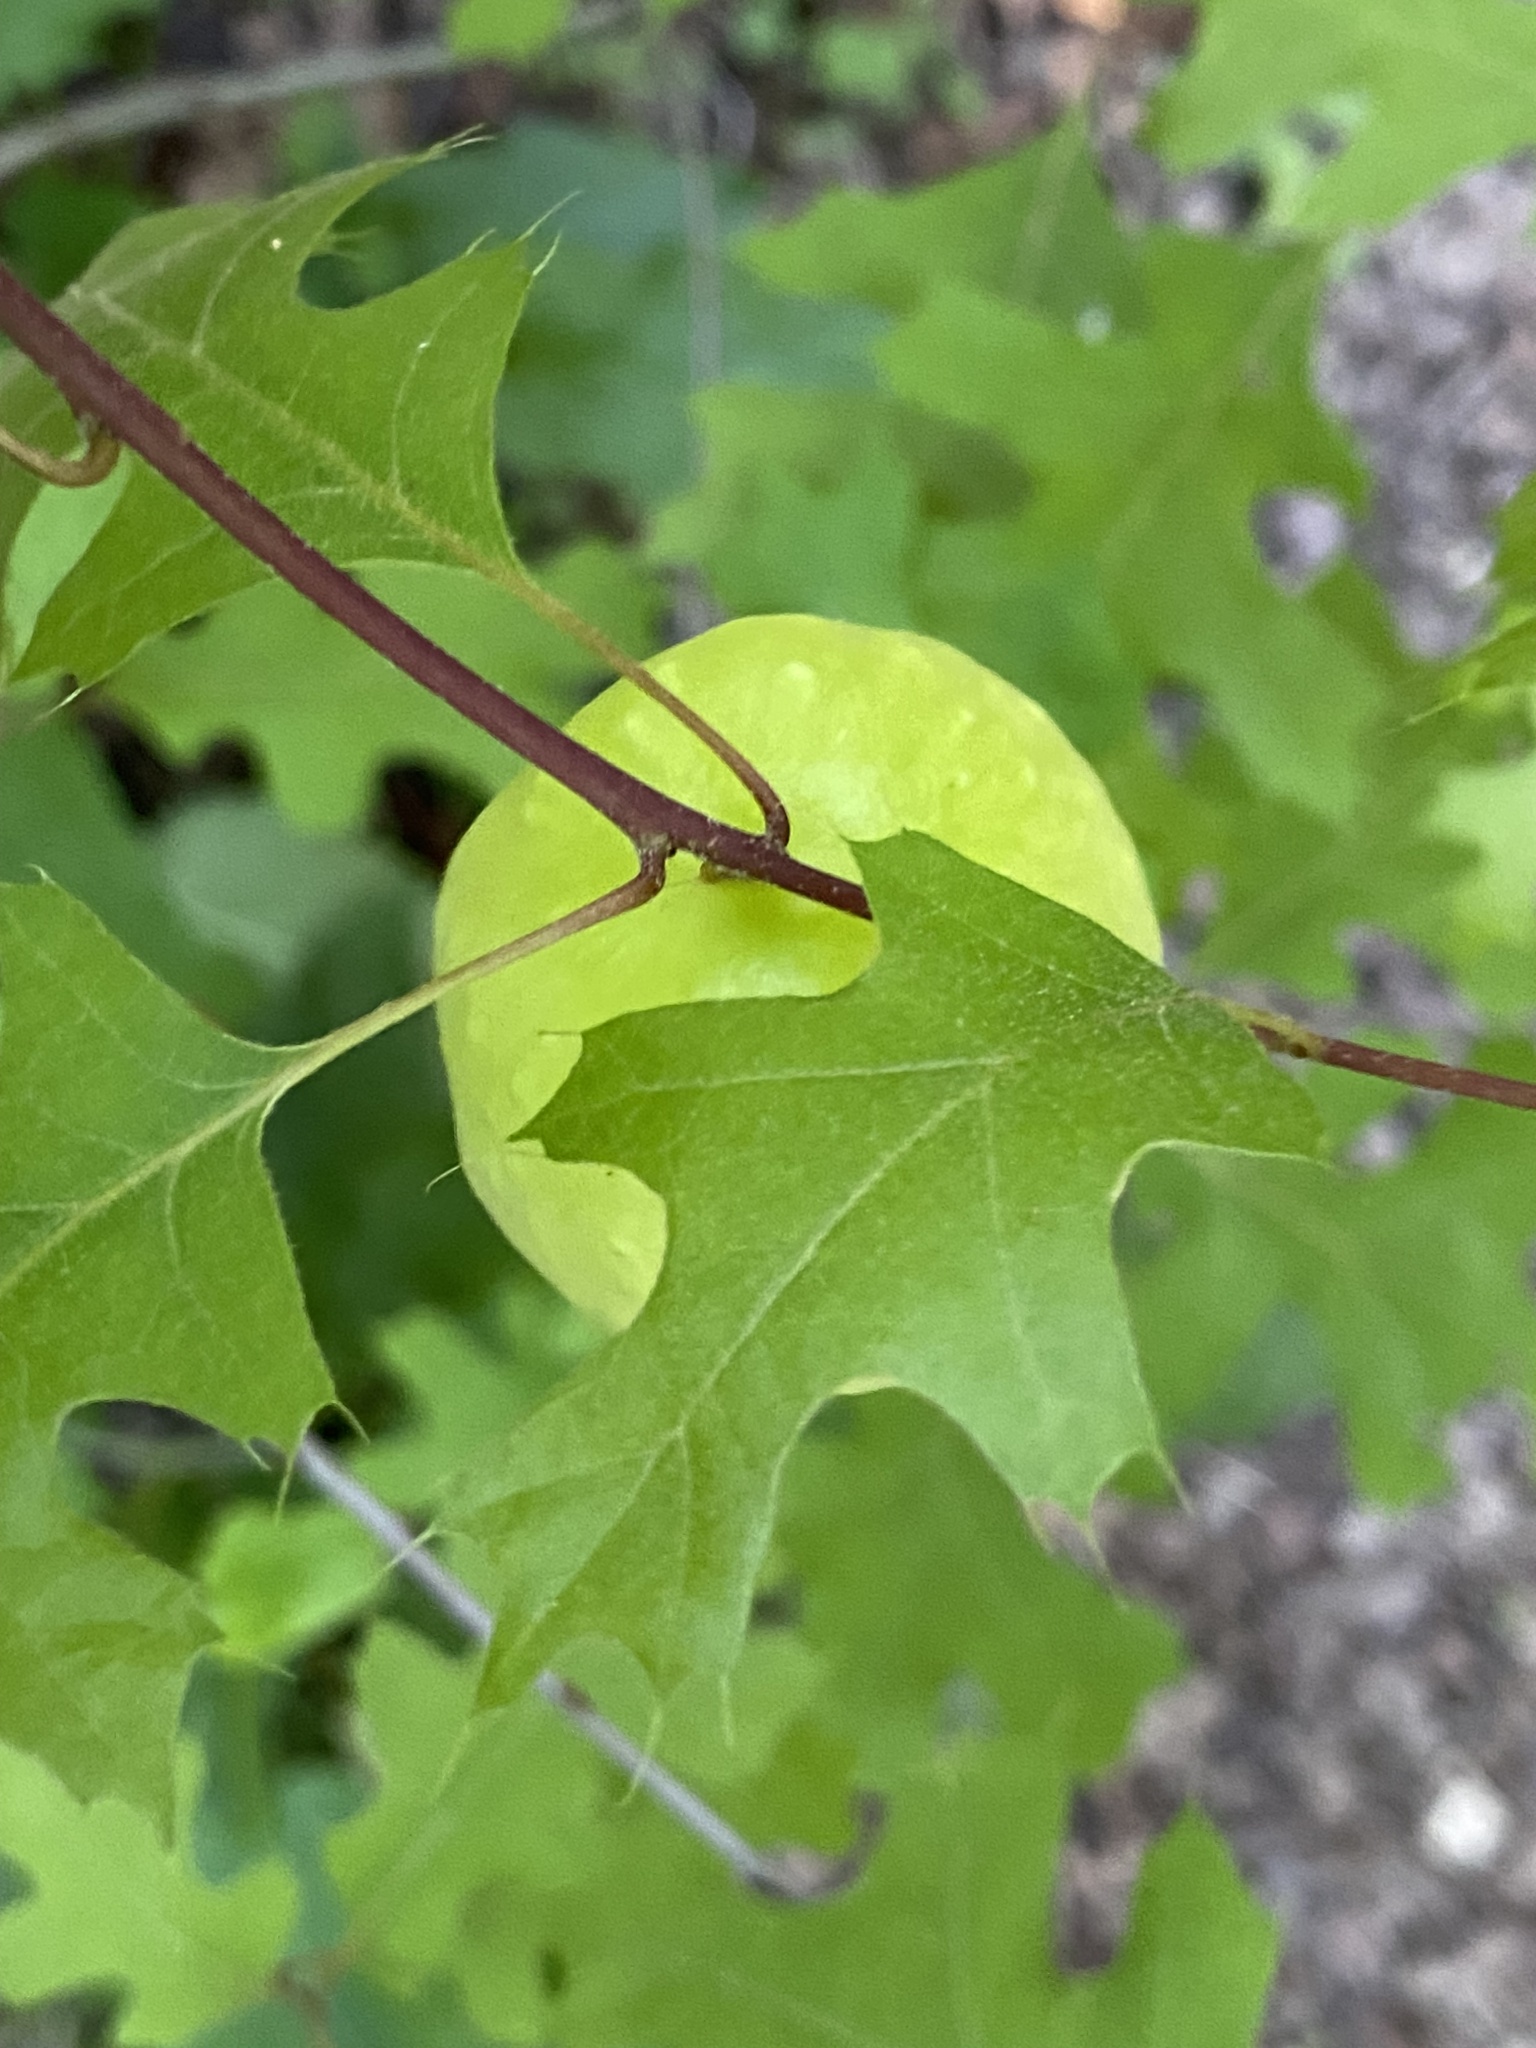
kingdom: Animalia
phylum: Arthropoda
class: Insecta
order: Hymenoptera
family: Cynipidae
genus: Amphibolips
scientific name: Amphibolips
